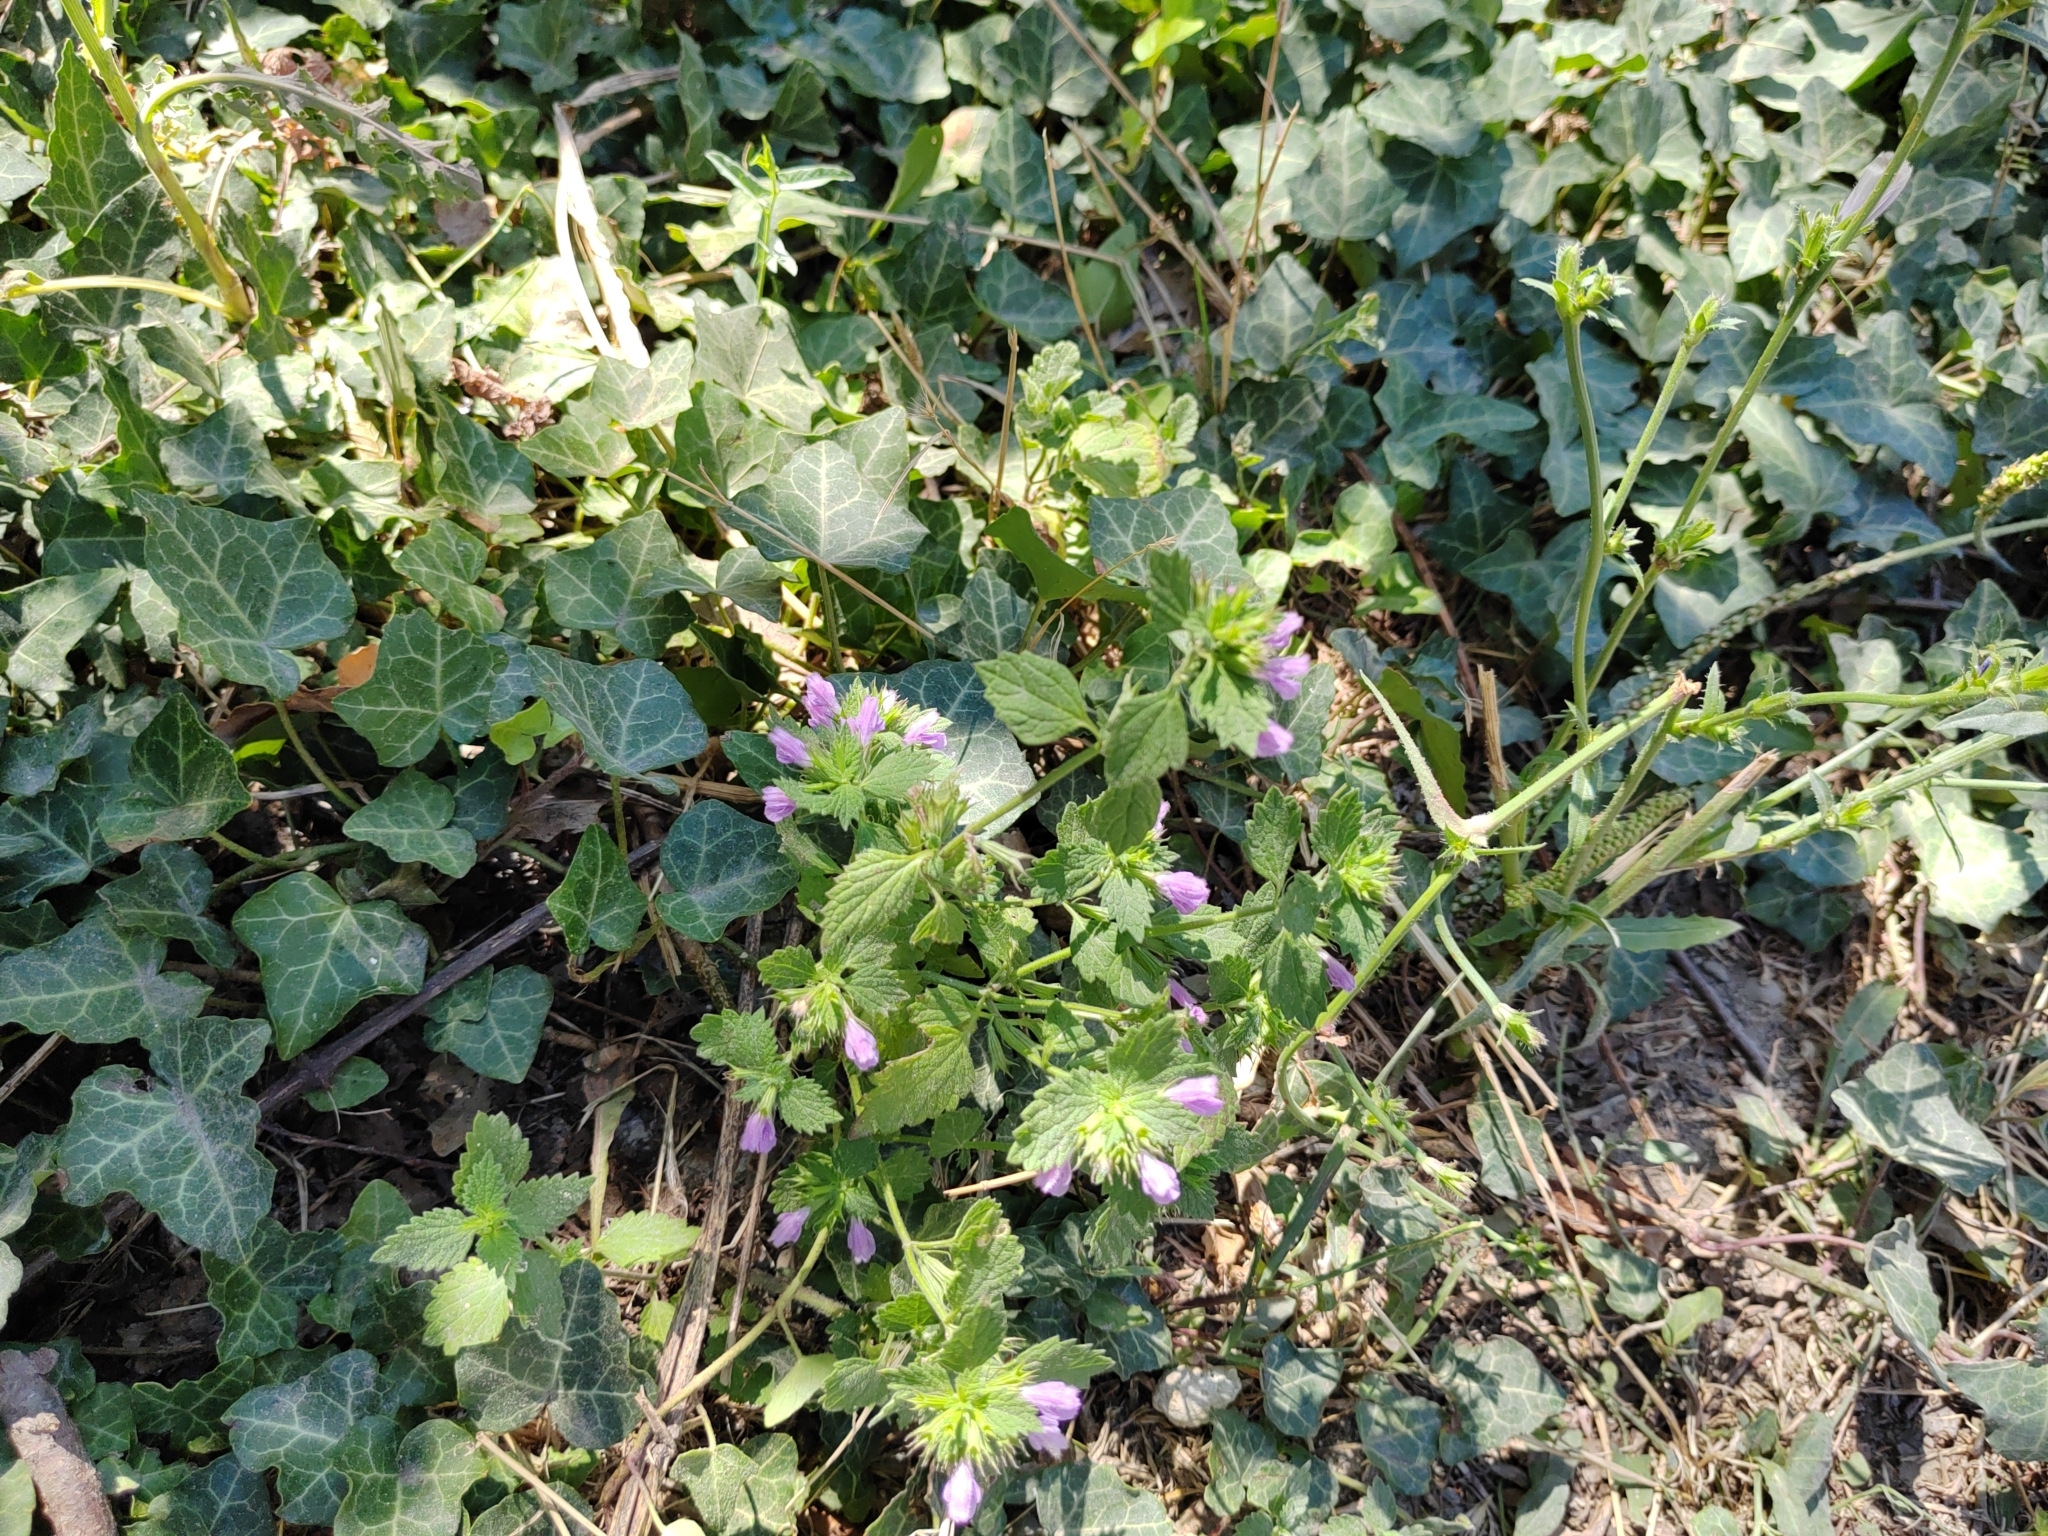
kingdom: Plantae
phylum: Tracheophyta
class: Magnoliopsida
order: Lamiales
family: Lamiaceae
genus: Ballota
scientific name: Ballota nigra
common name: Black horehound
